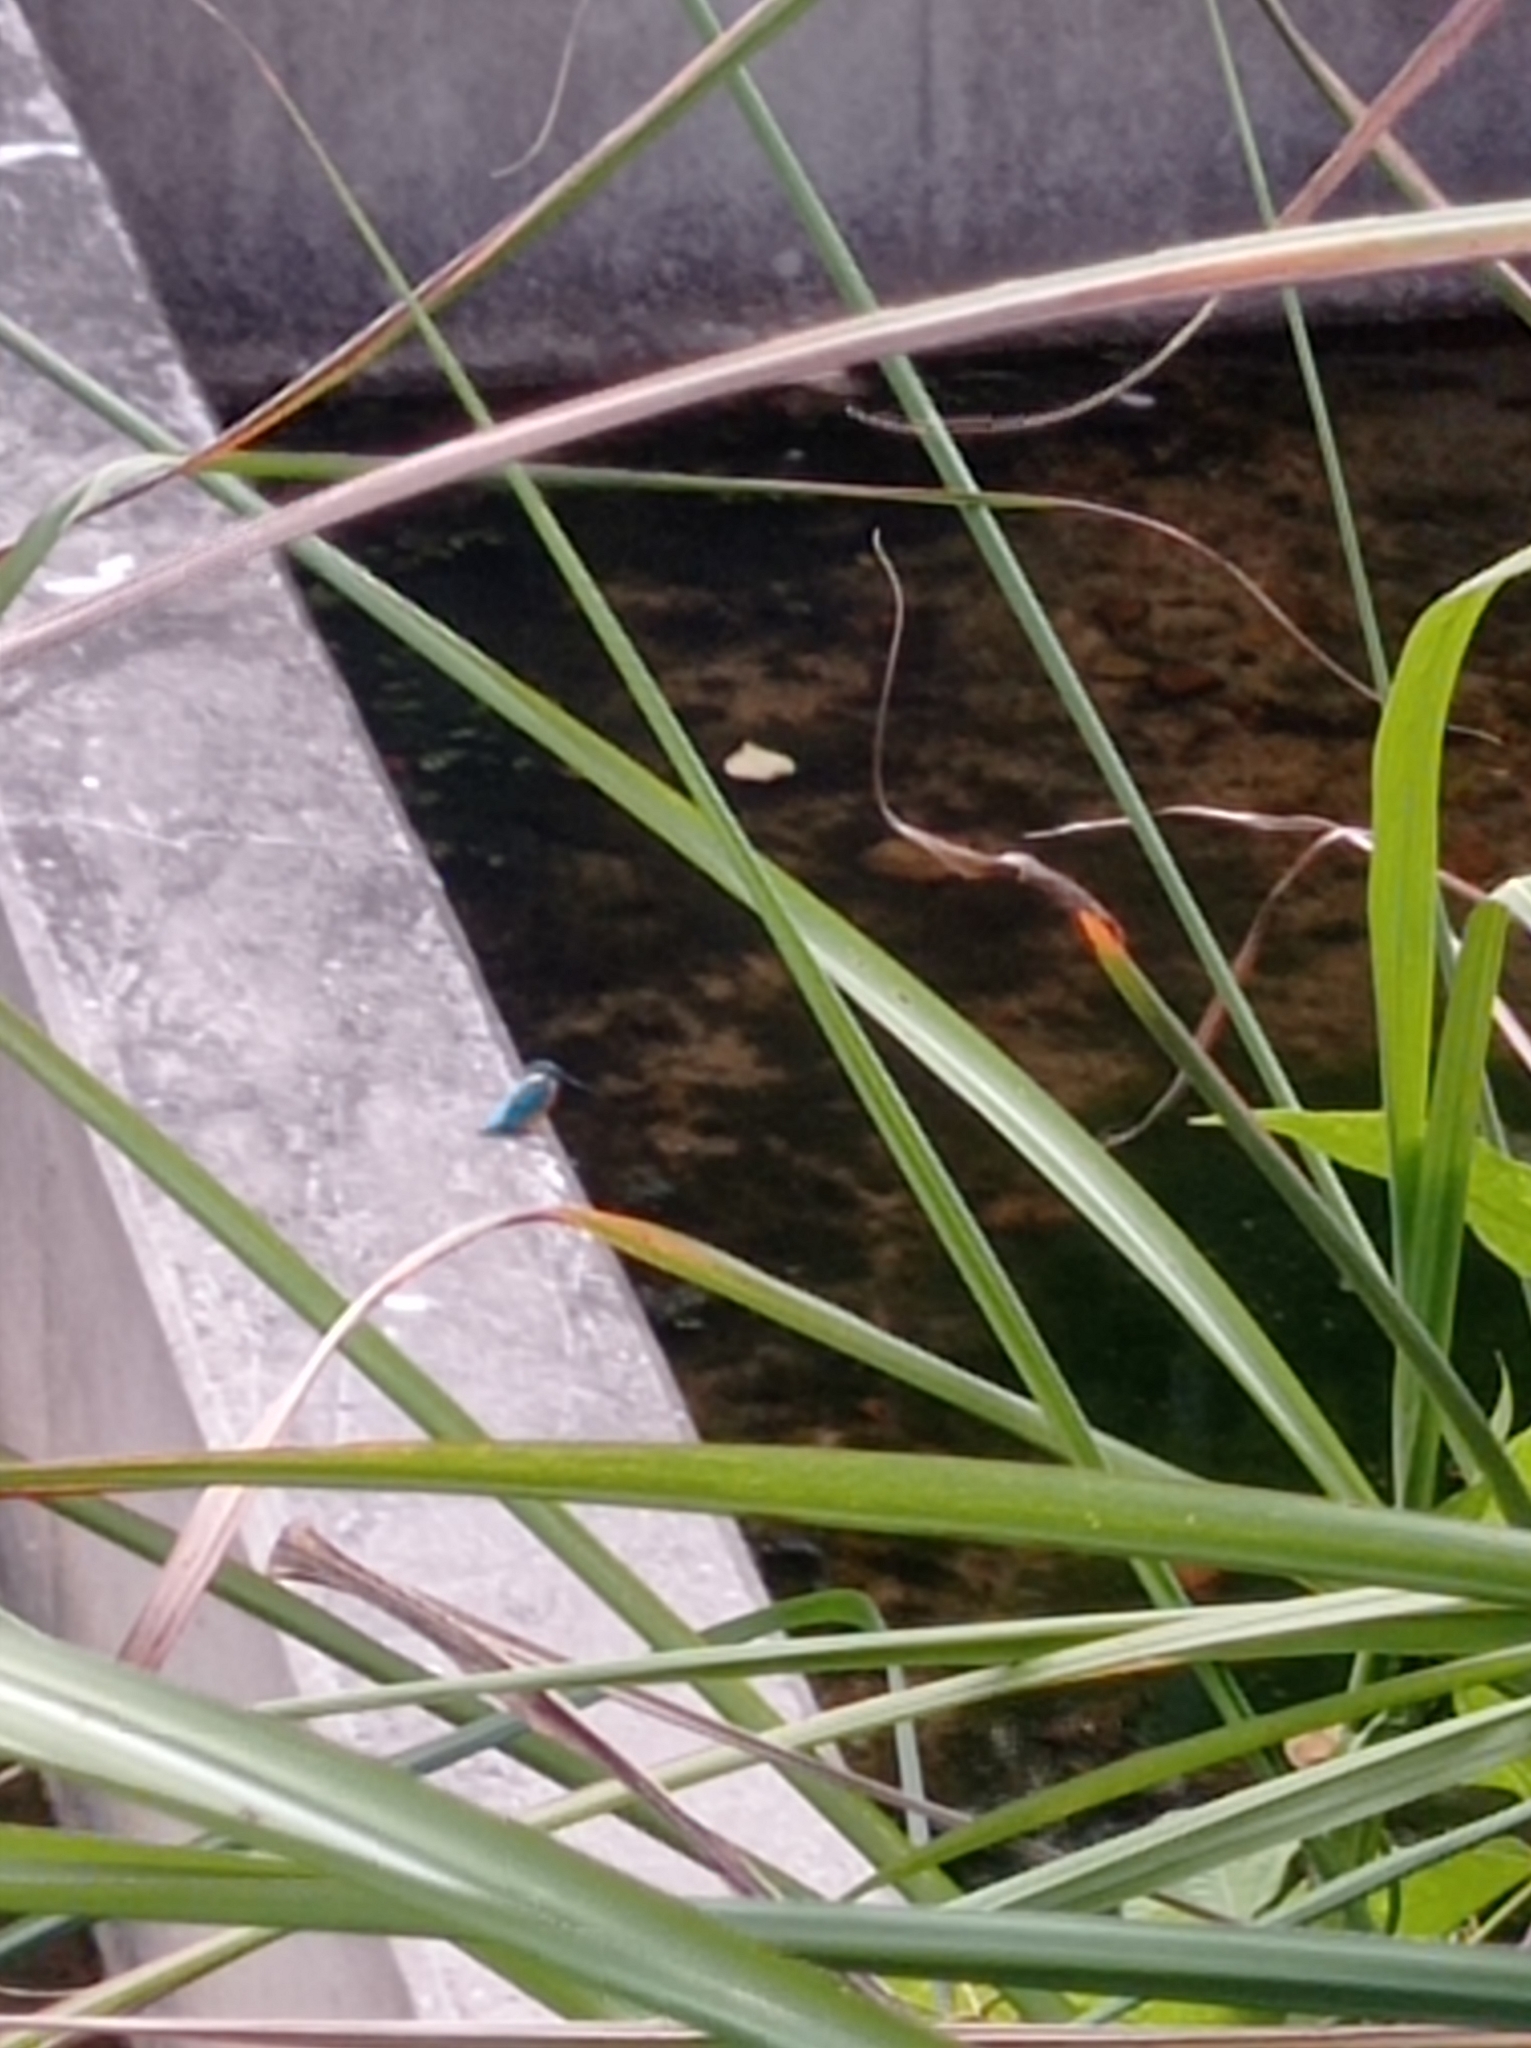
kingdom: Animalia
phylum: Chordata
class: Aves
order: Coraciiformes
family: Alcedinidae
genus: Alcedo
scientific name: Alcedo atthis
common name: Common kingfisher
